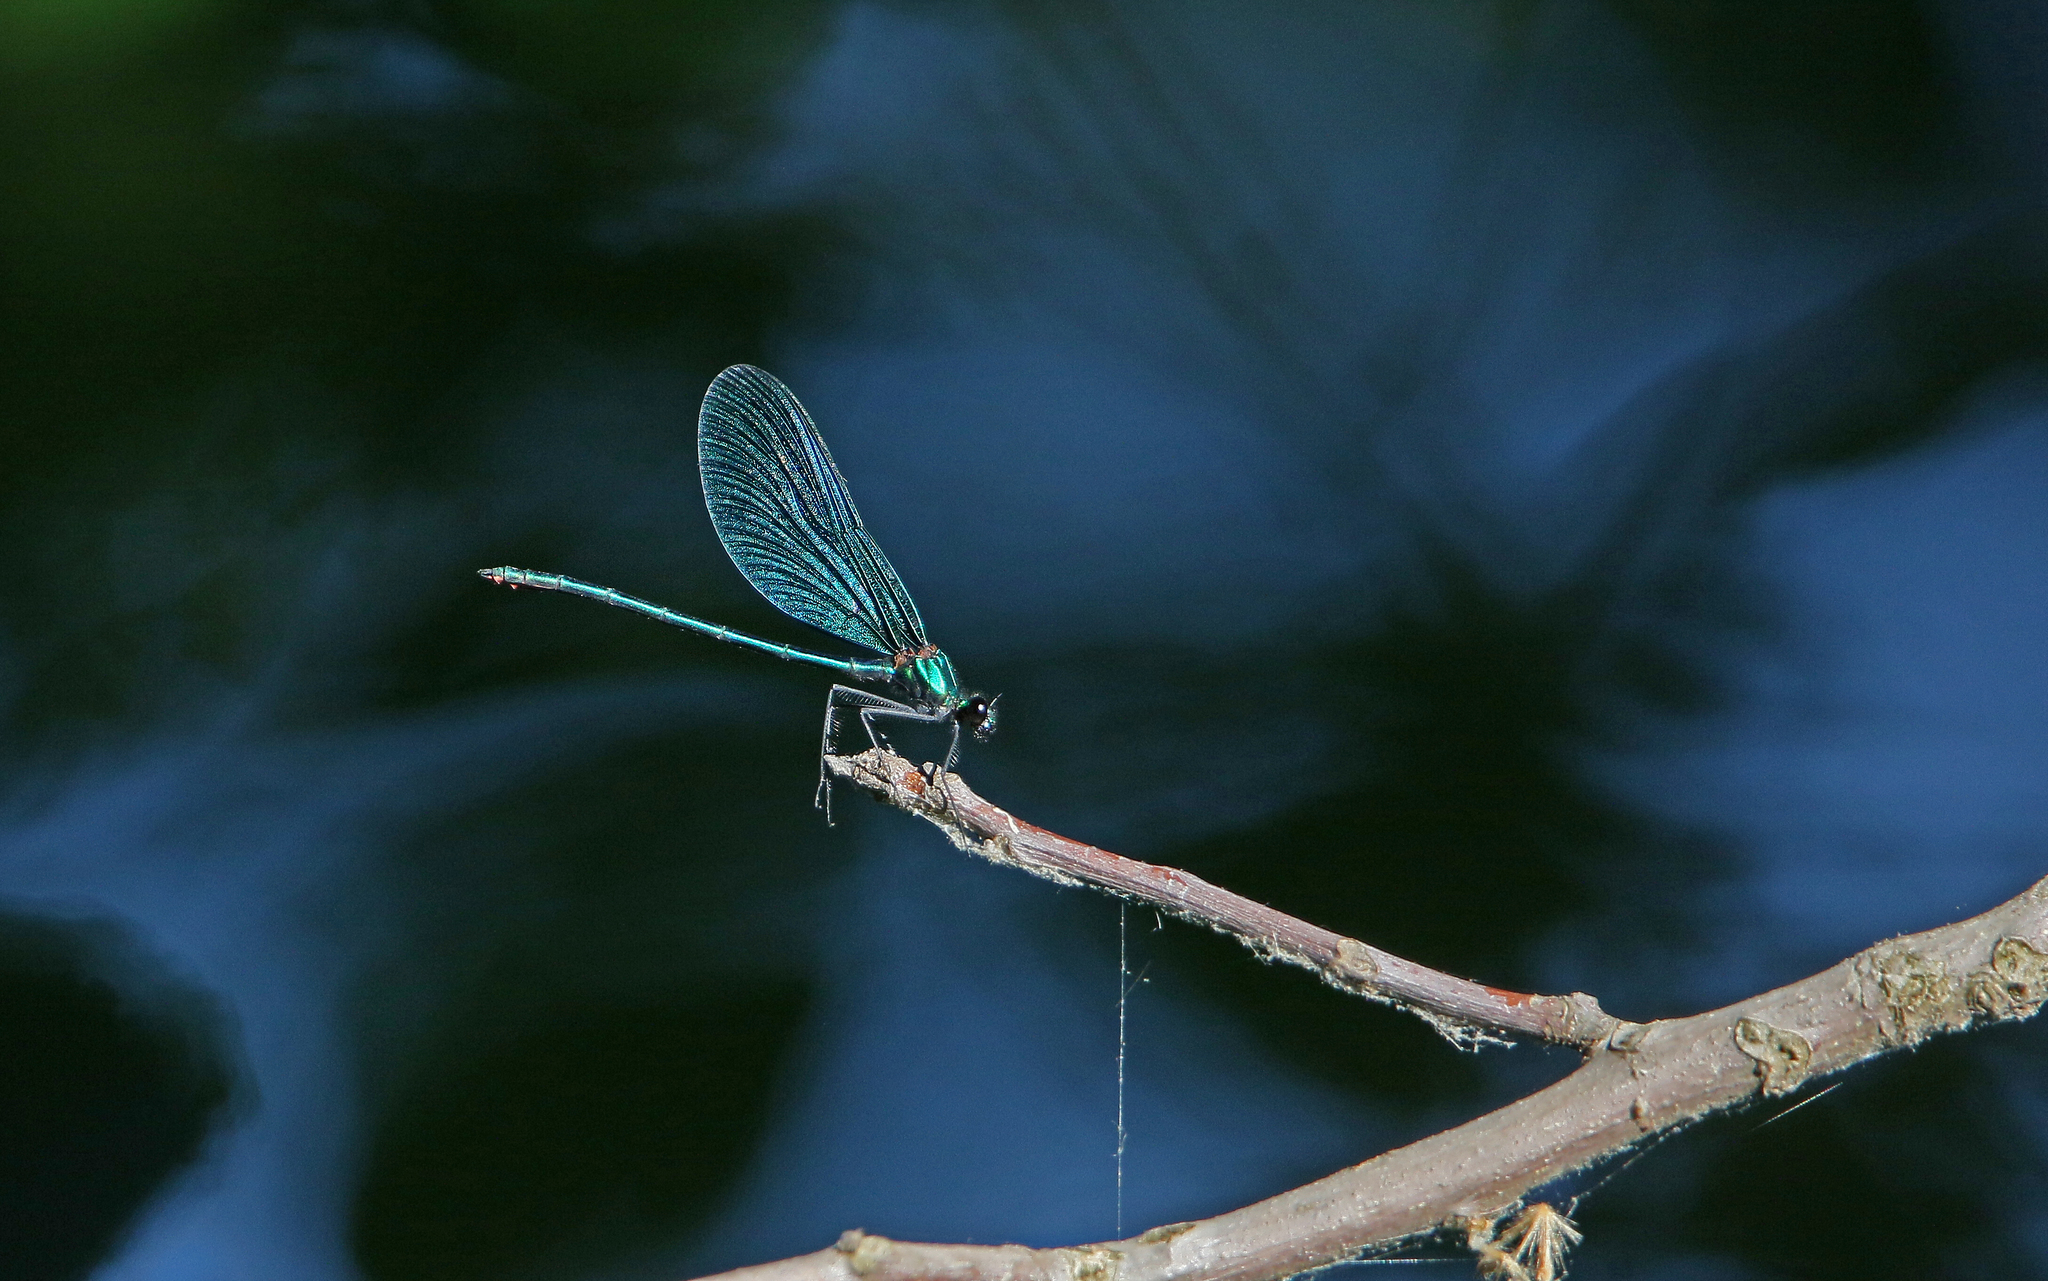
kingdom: Animalia
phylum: Arthropoda
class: Insecta
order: Odonata
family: Calopterygidae
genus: Calopteryx
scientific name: Calopteryx virgo
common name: Beautiful demoiselle
